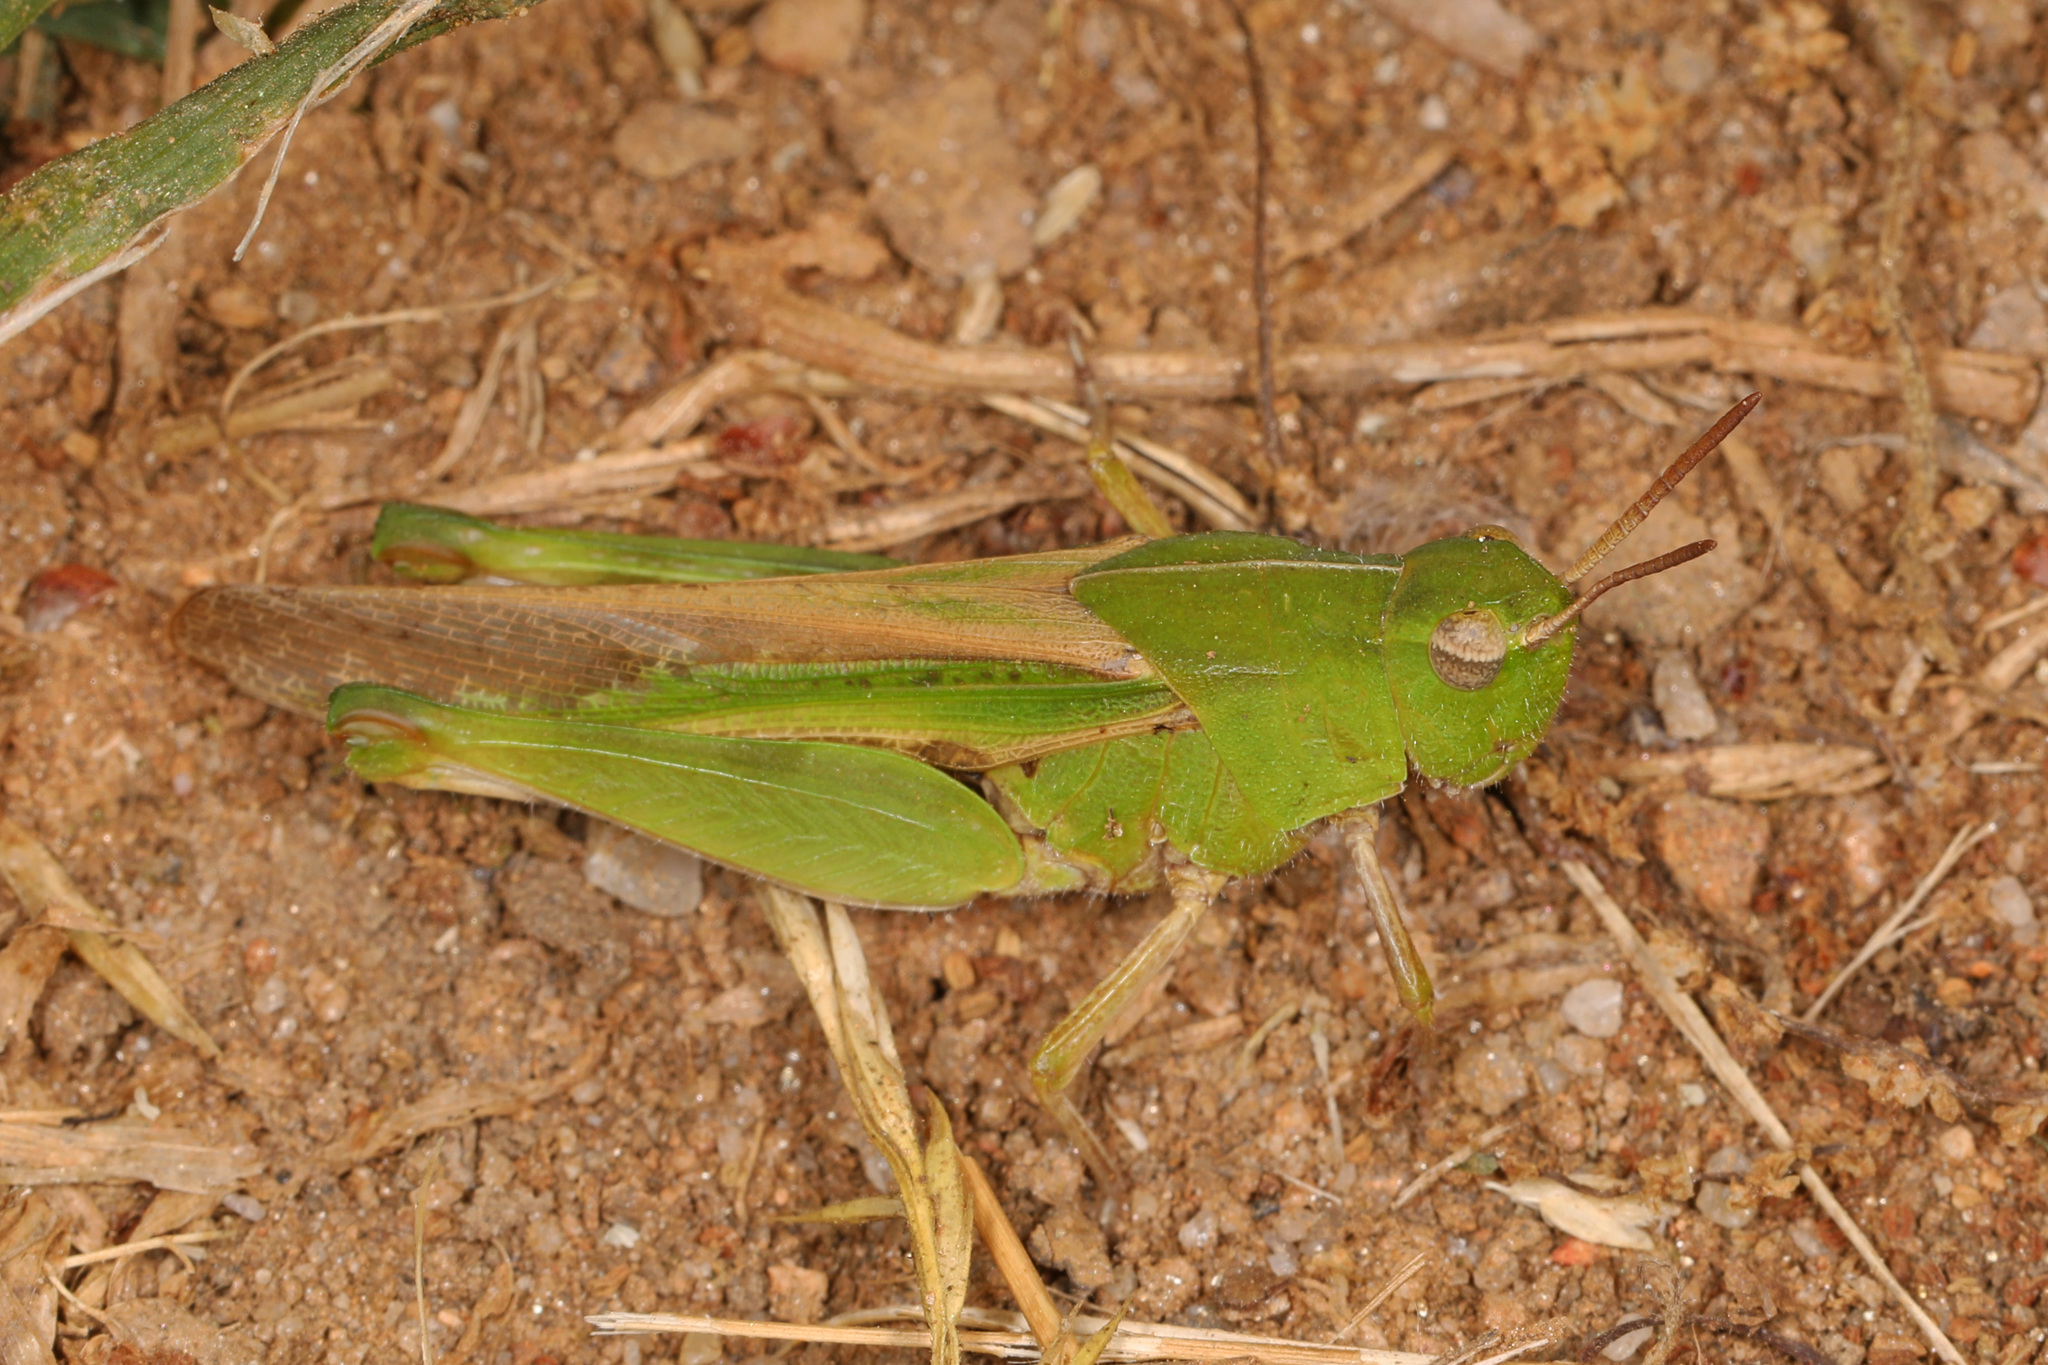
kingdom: Animalia
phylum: Arthropoda
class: Insecta
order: Orthoptera
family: Acrididae
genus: Chortophaga
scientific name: Chortophaga viridifasciata
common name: Green-striped grasshopper
